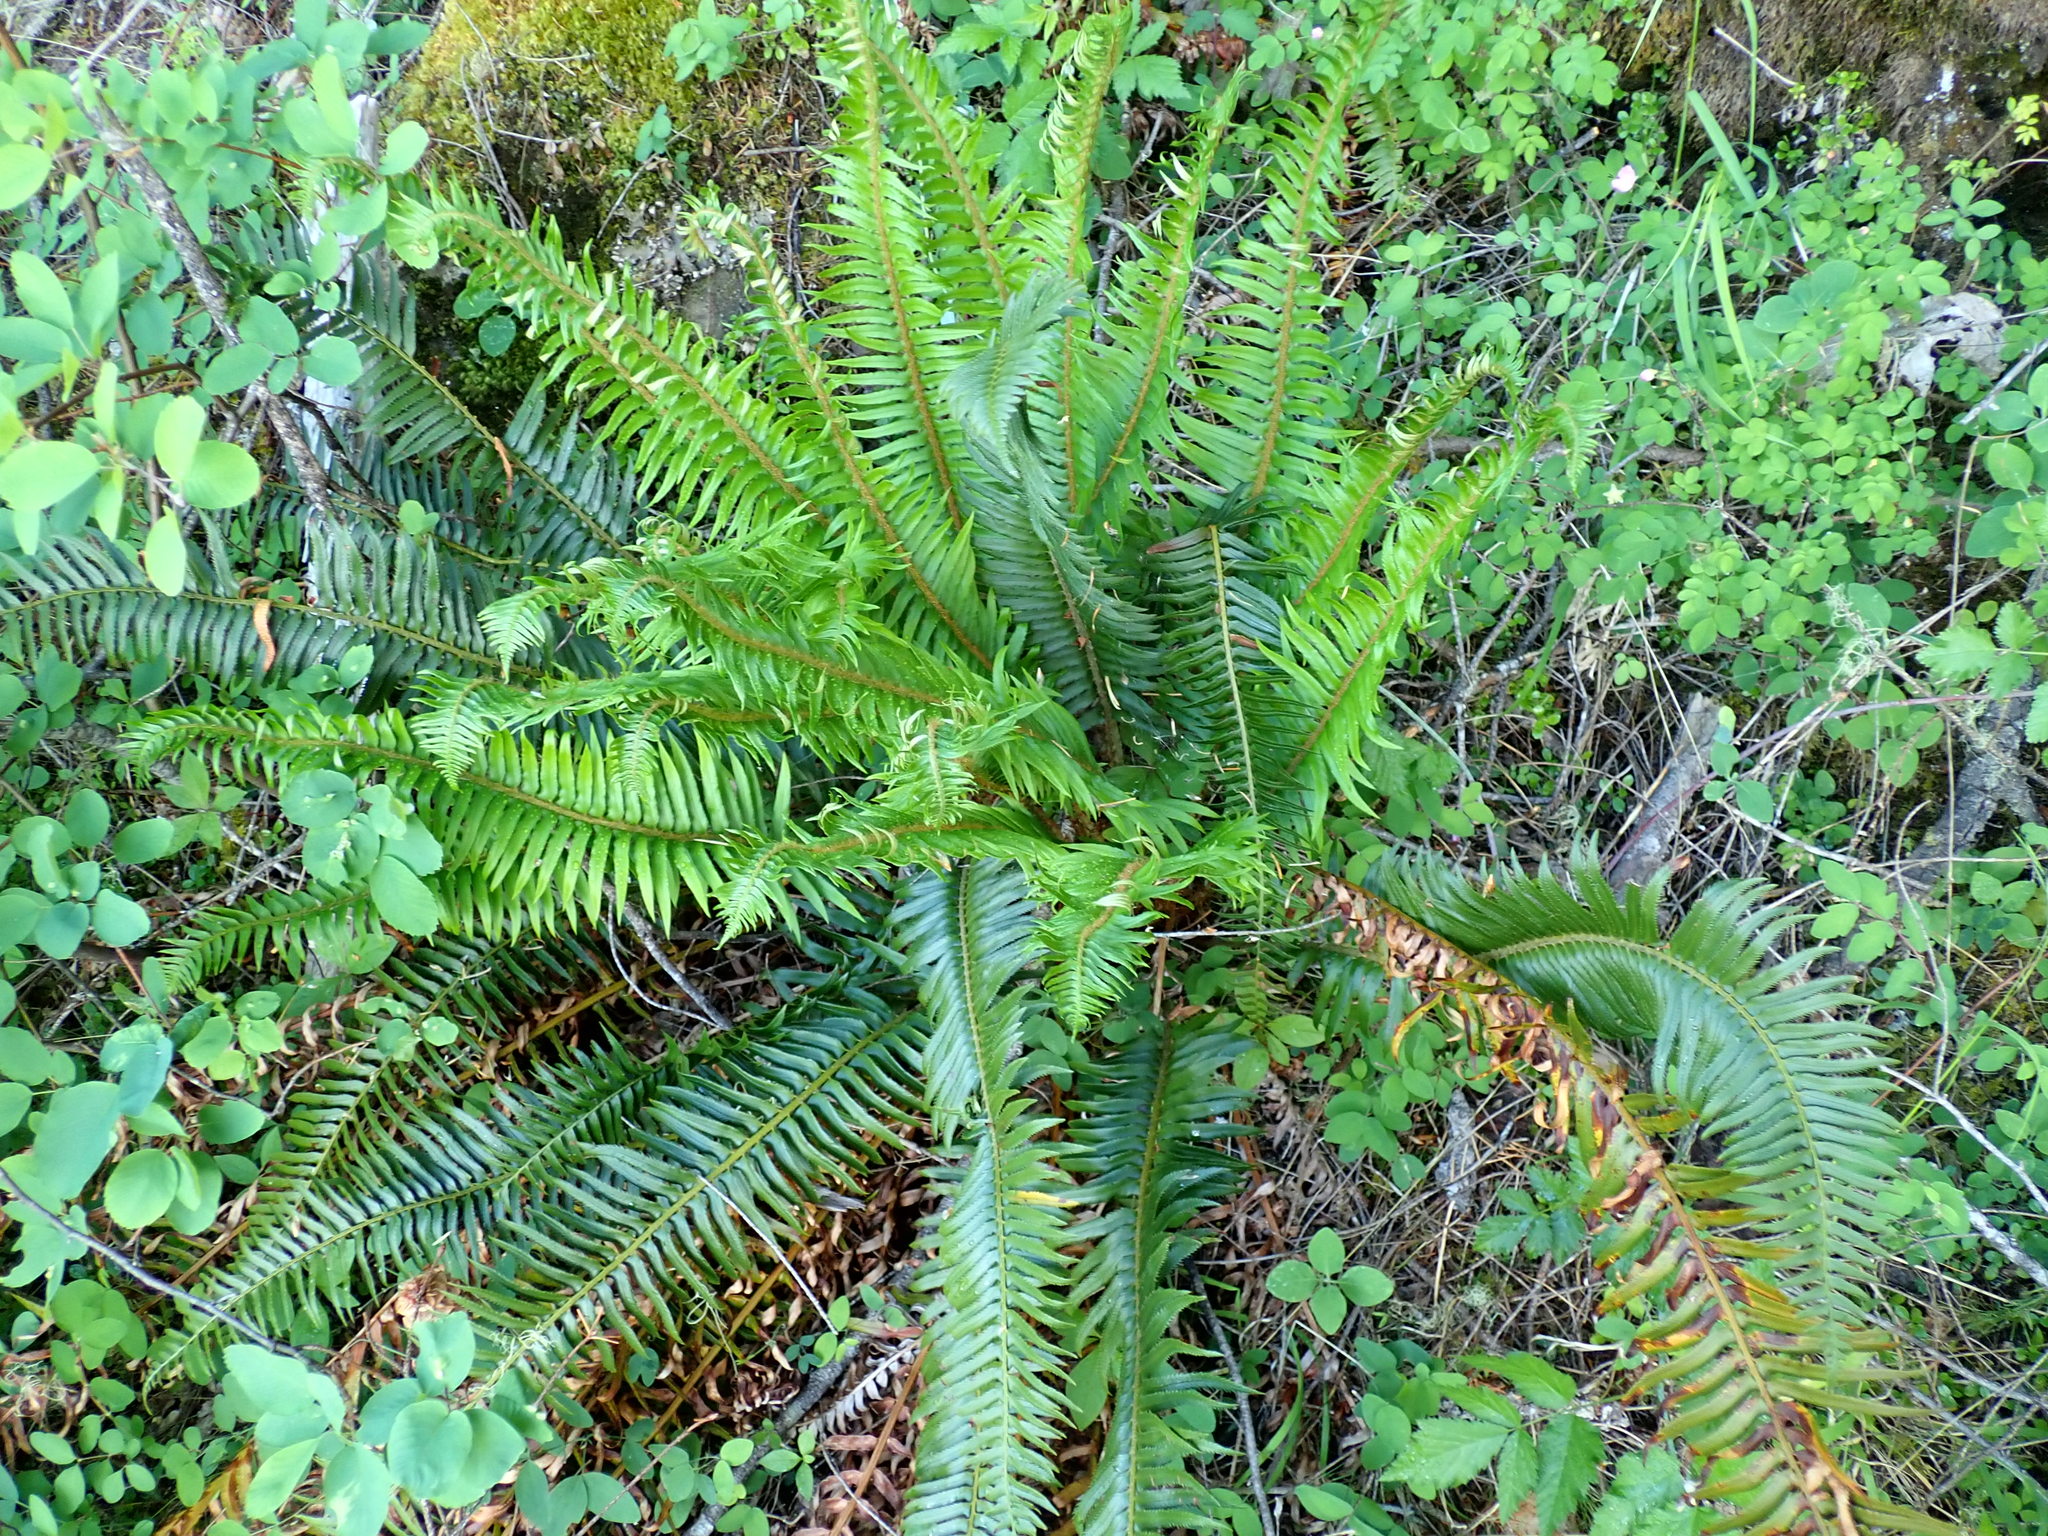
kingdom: Plantae
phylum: Tracheophyta
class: Polypodiopsida
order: Polypodiales
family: Dryopteridaceae
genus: Polystichum
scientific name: Polystichum munitum
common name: Western sword-fern
